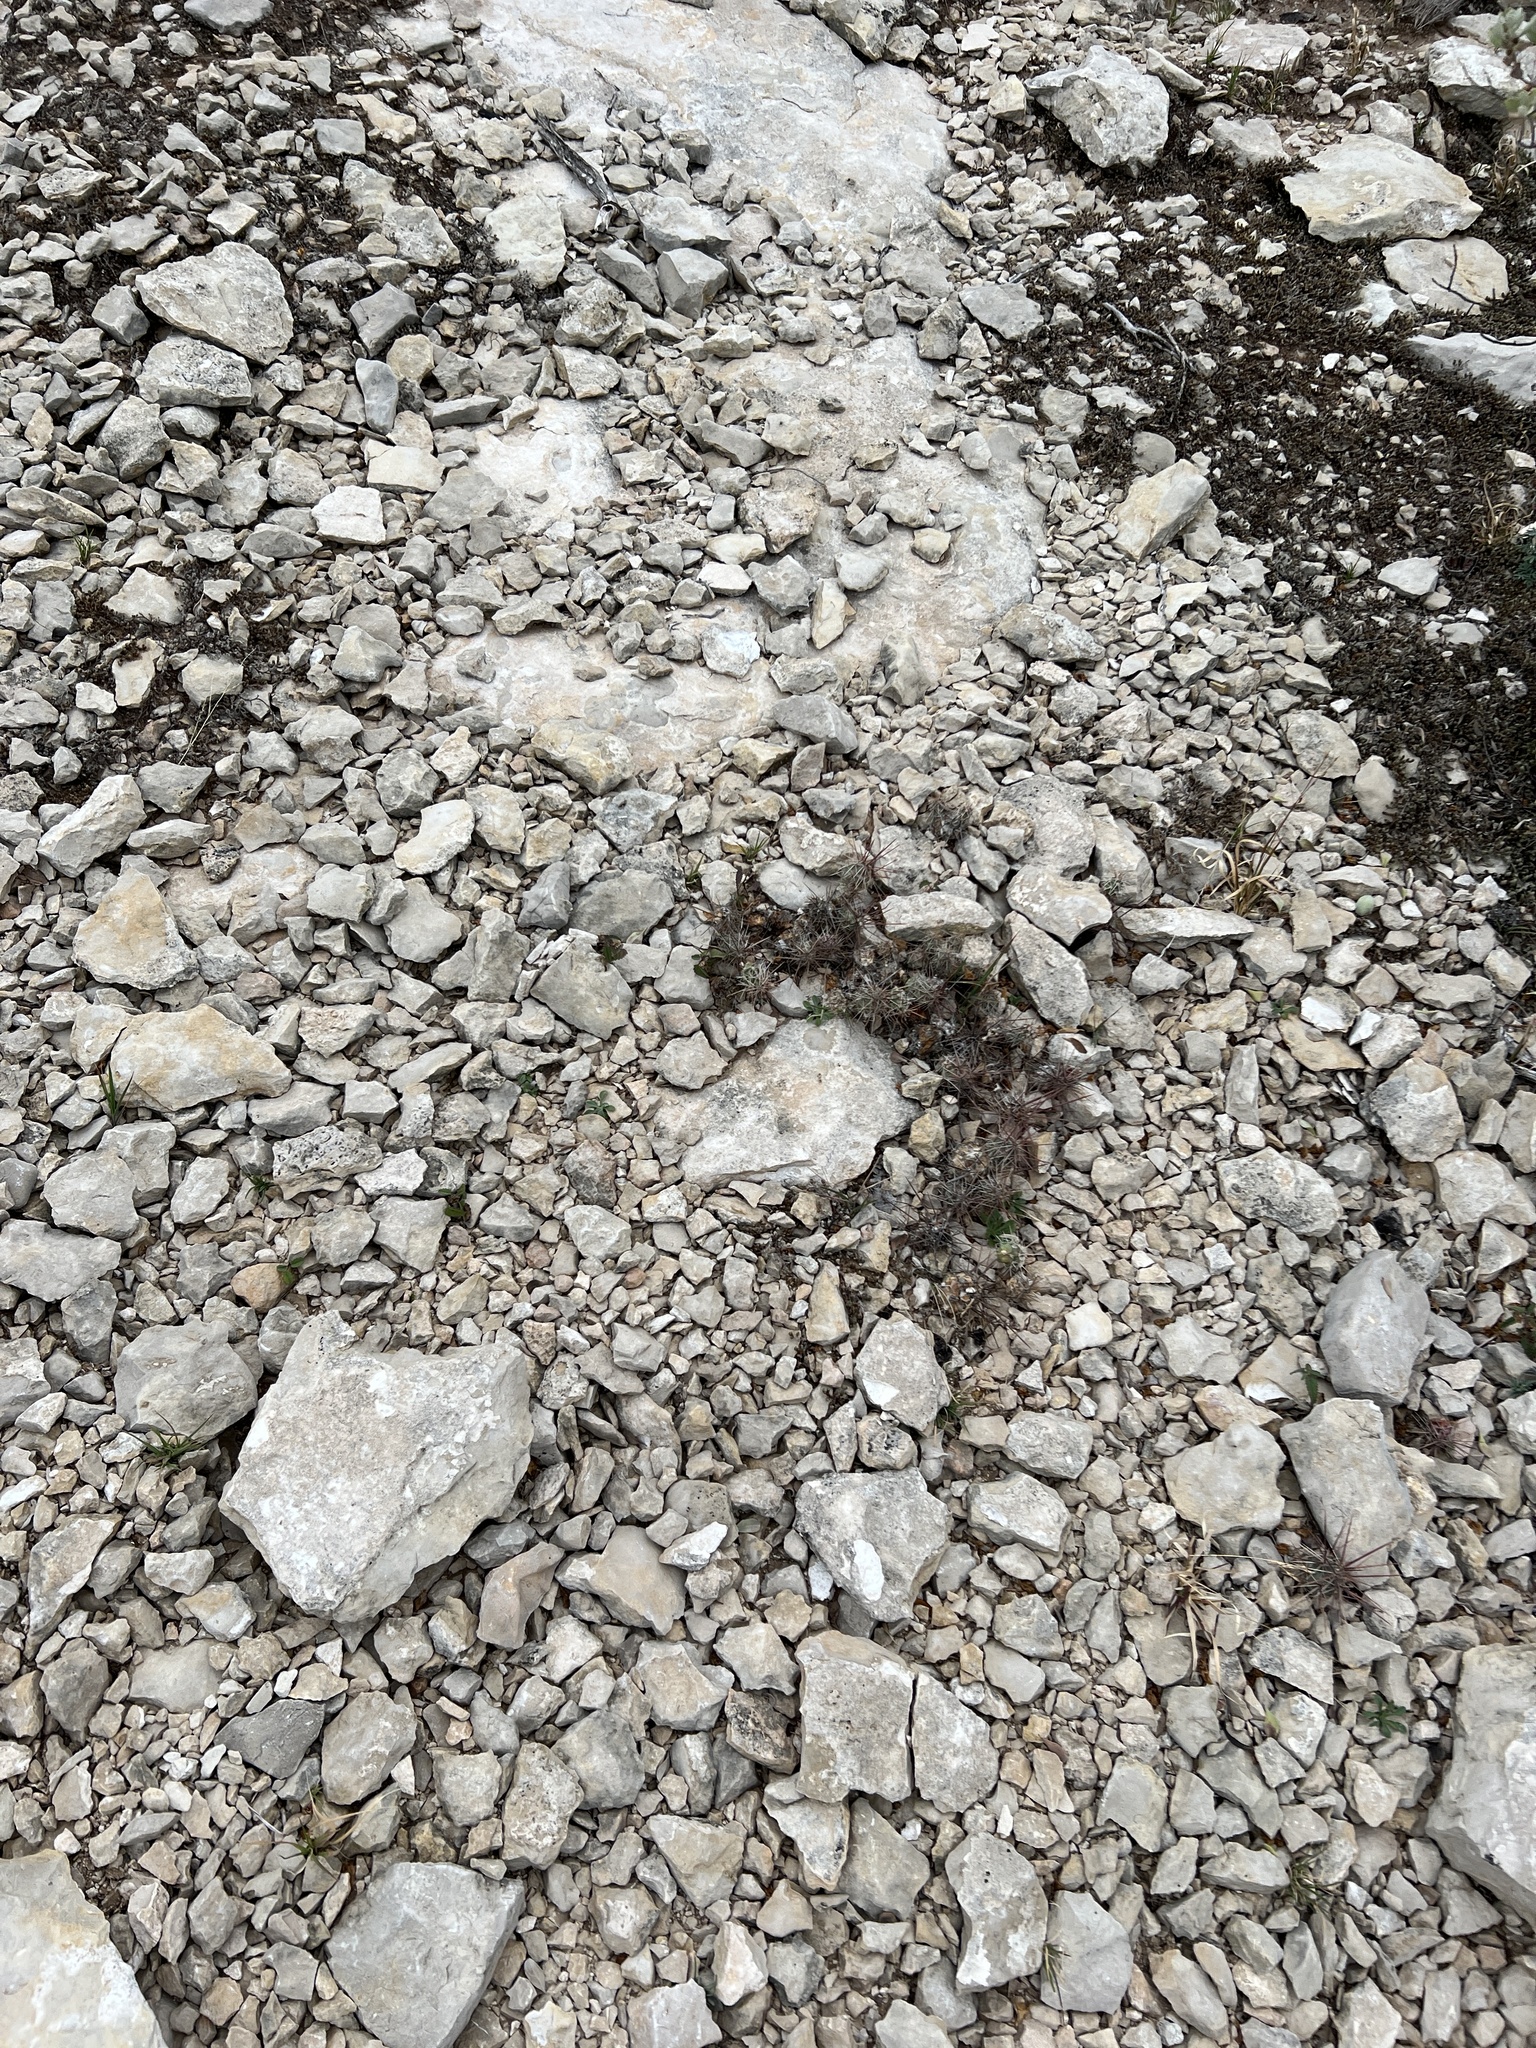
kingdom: Plantae
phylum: Tracheophyta
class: Magnoliopsida
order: Caryophyllales
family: Cactaceae
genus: Grusonia
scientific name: Grusonia schottii
